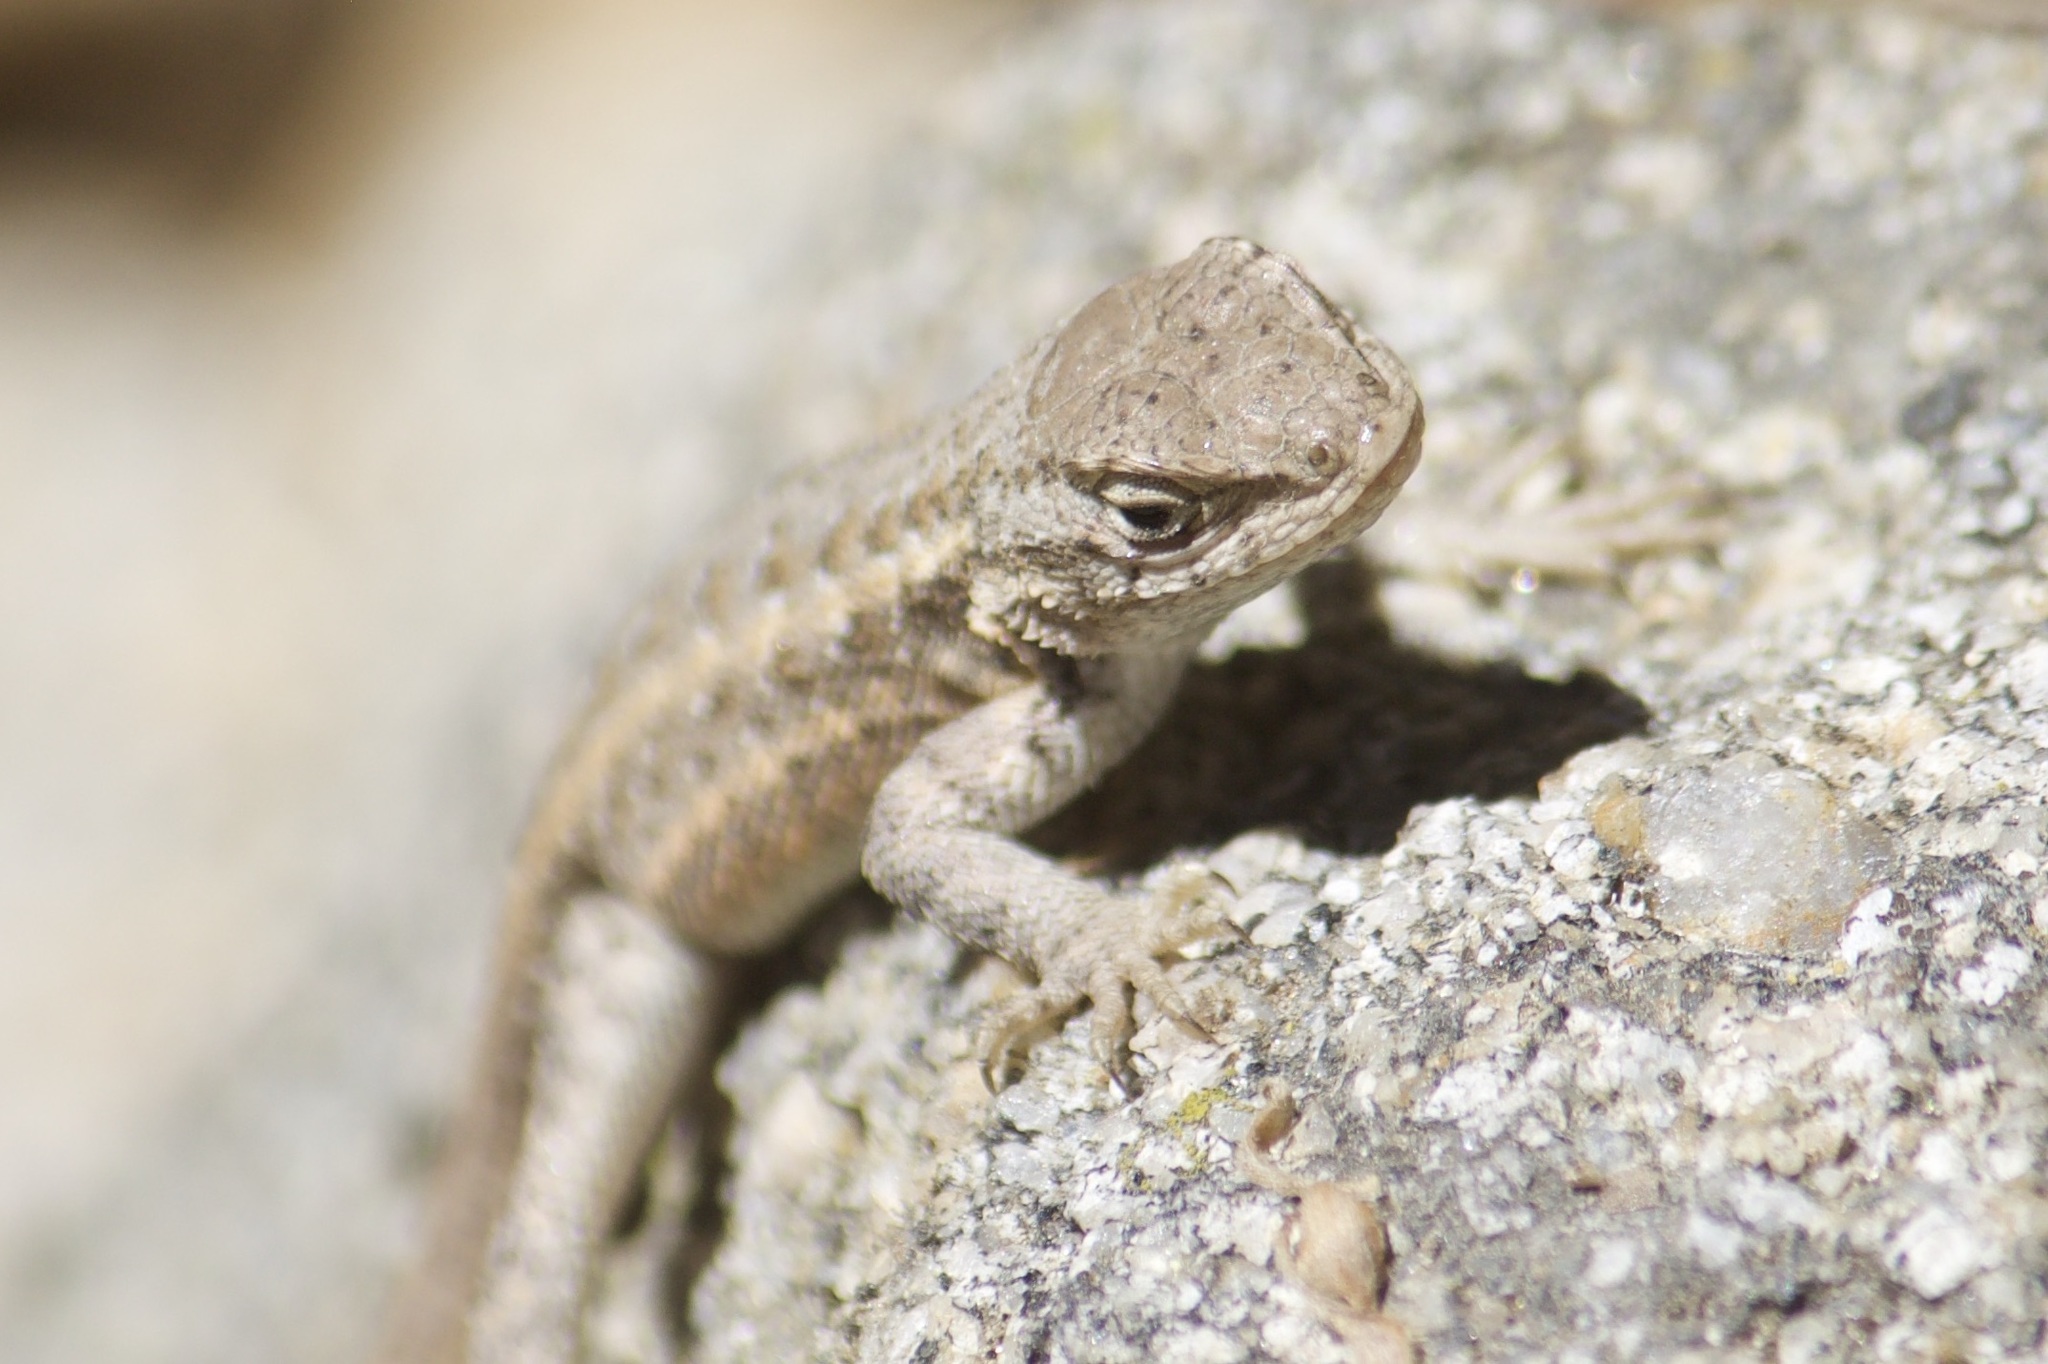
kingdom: Animalia
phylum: Chordata
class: Squamata
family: Phrynosomatidae
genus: Sceloporus
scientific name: Sceloporus graciosus
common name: Sagebrush lizard
